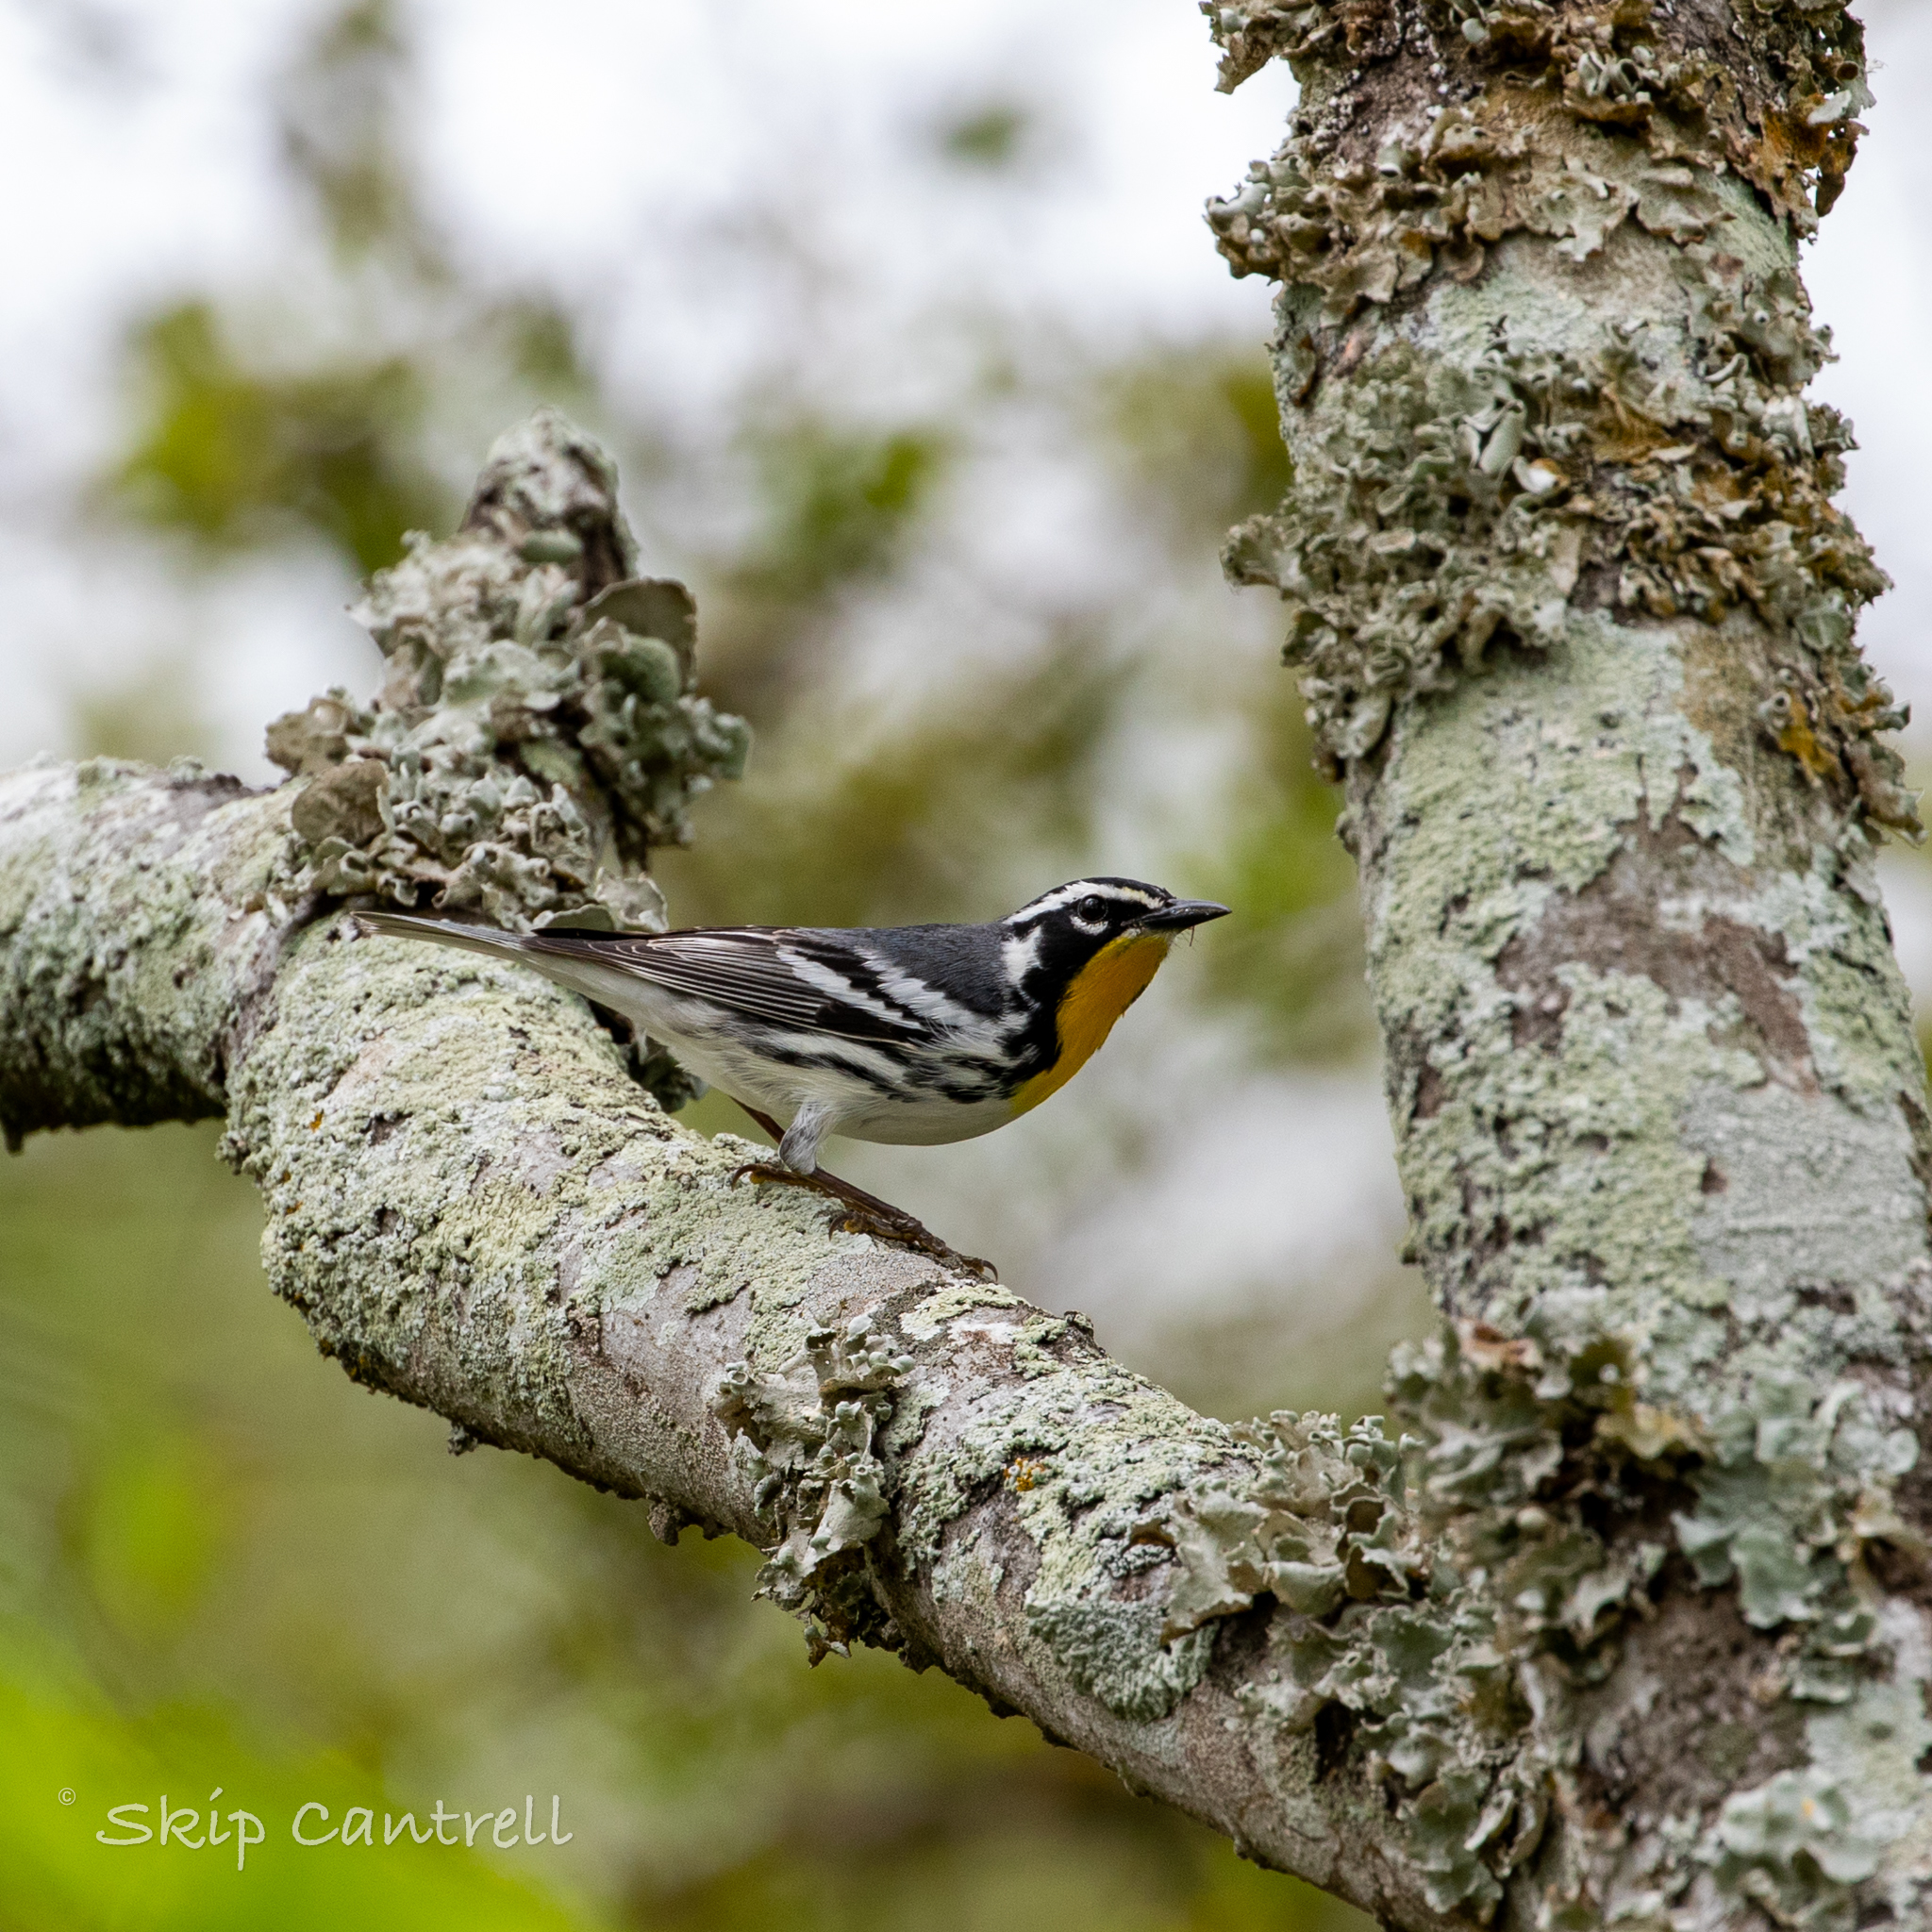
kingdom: Animalia
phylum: Chordata
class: Aves
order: Passeriformes
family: Parulidae
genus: Setophaga
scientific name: Setophaga dominica
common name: Yellow-throated warbler
